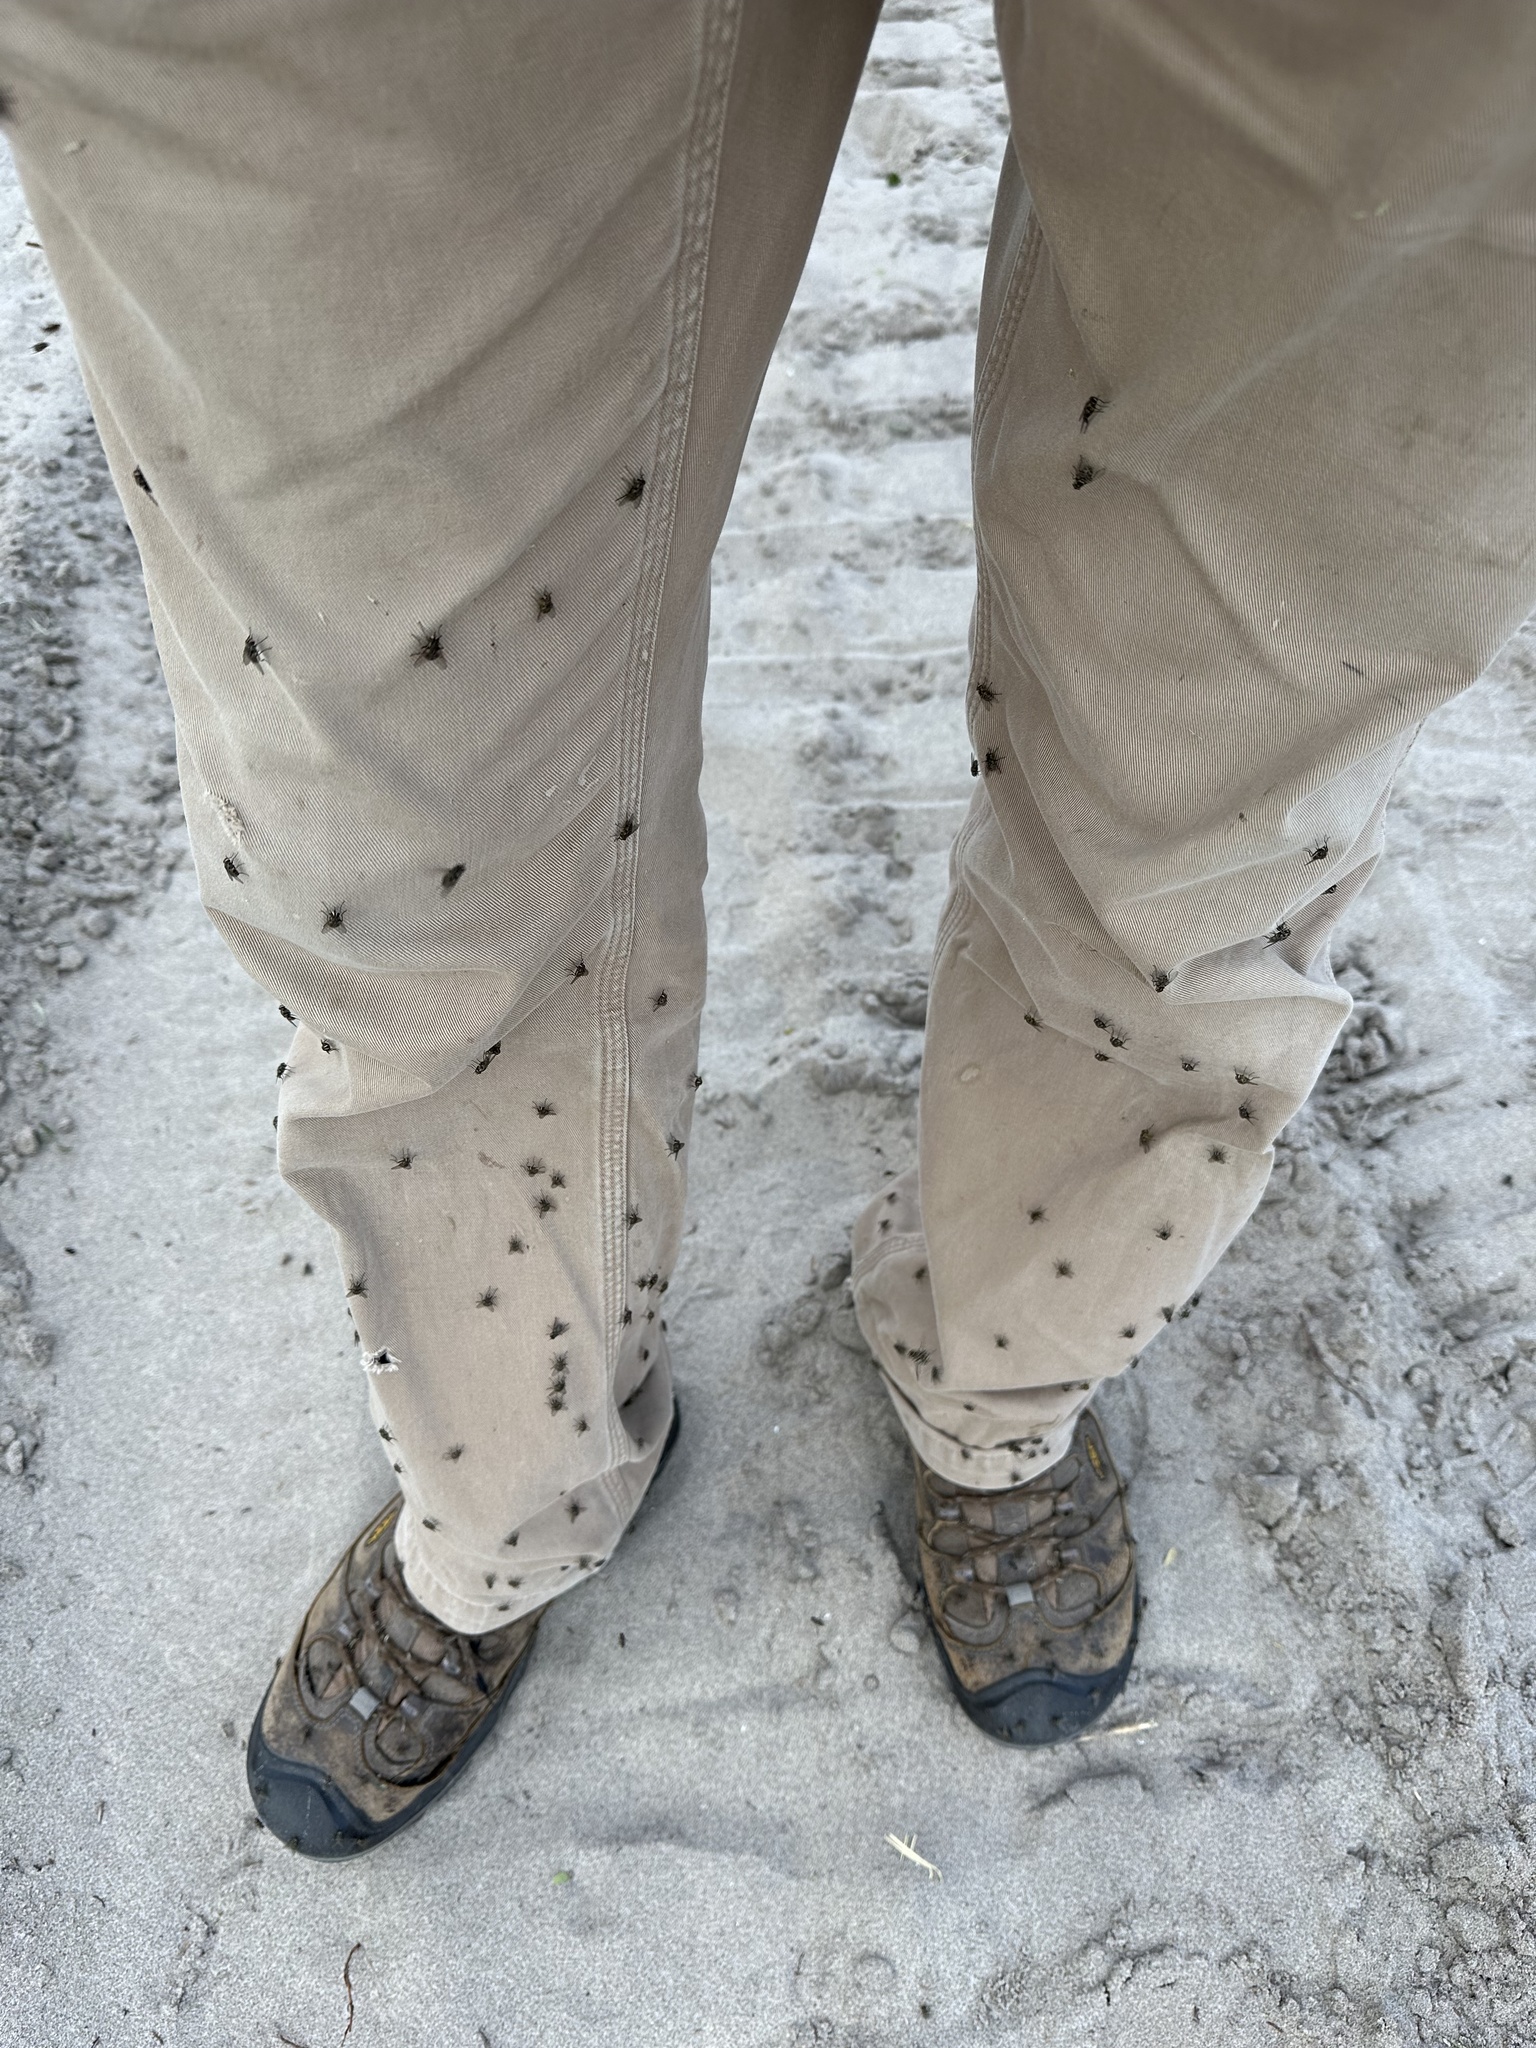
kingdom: Animalia
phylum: Arthropoda
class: Insecta
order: Diptera
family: Muscidae
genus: Stomoxys
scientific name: Stomoxys calcitrans
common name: Stable fly
